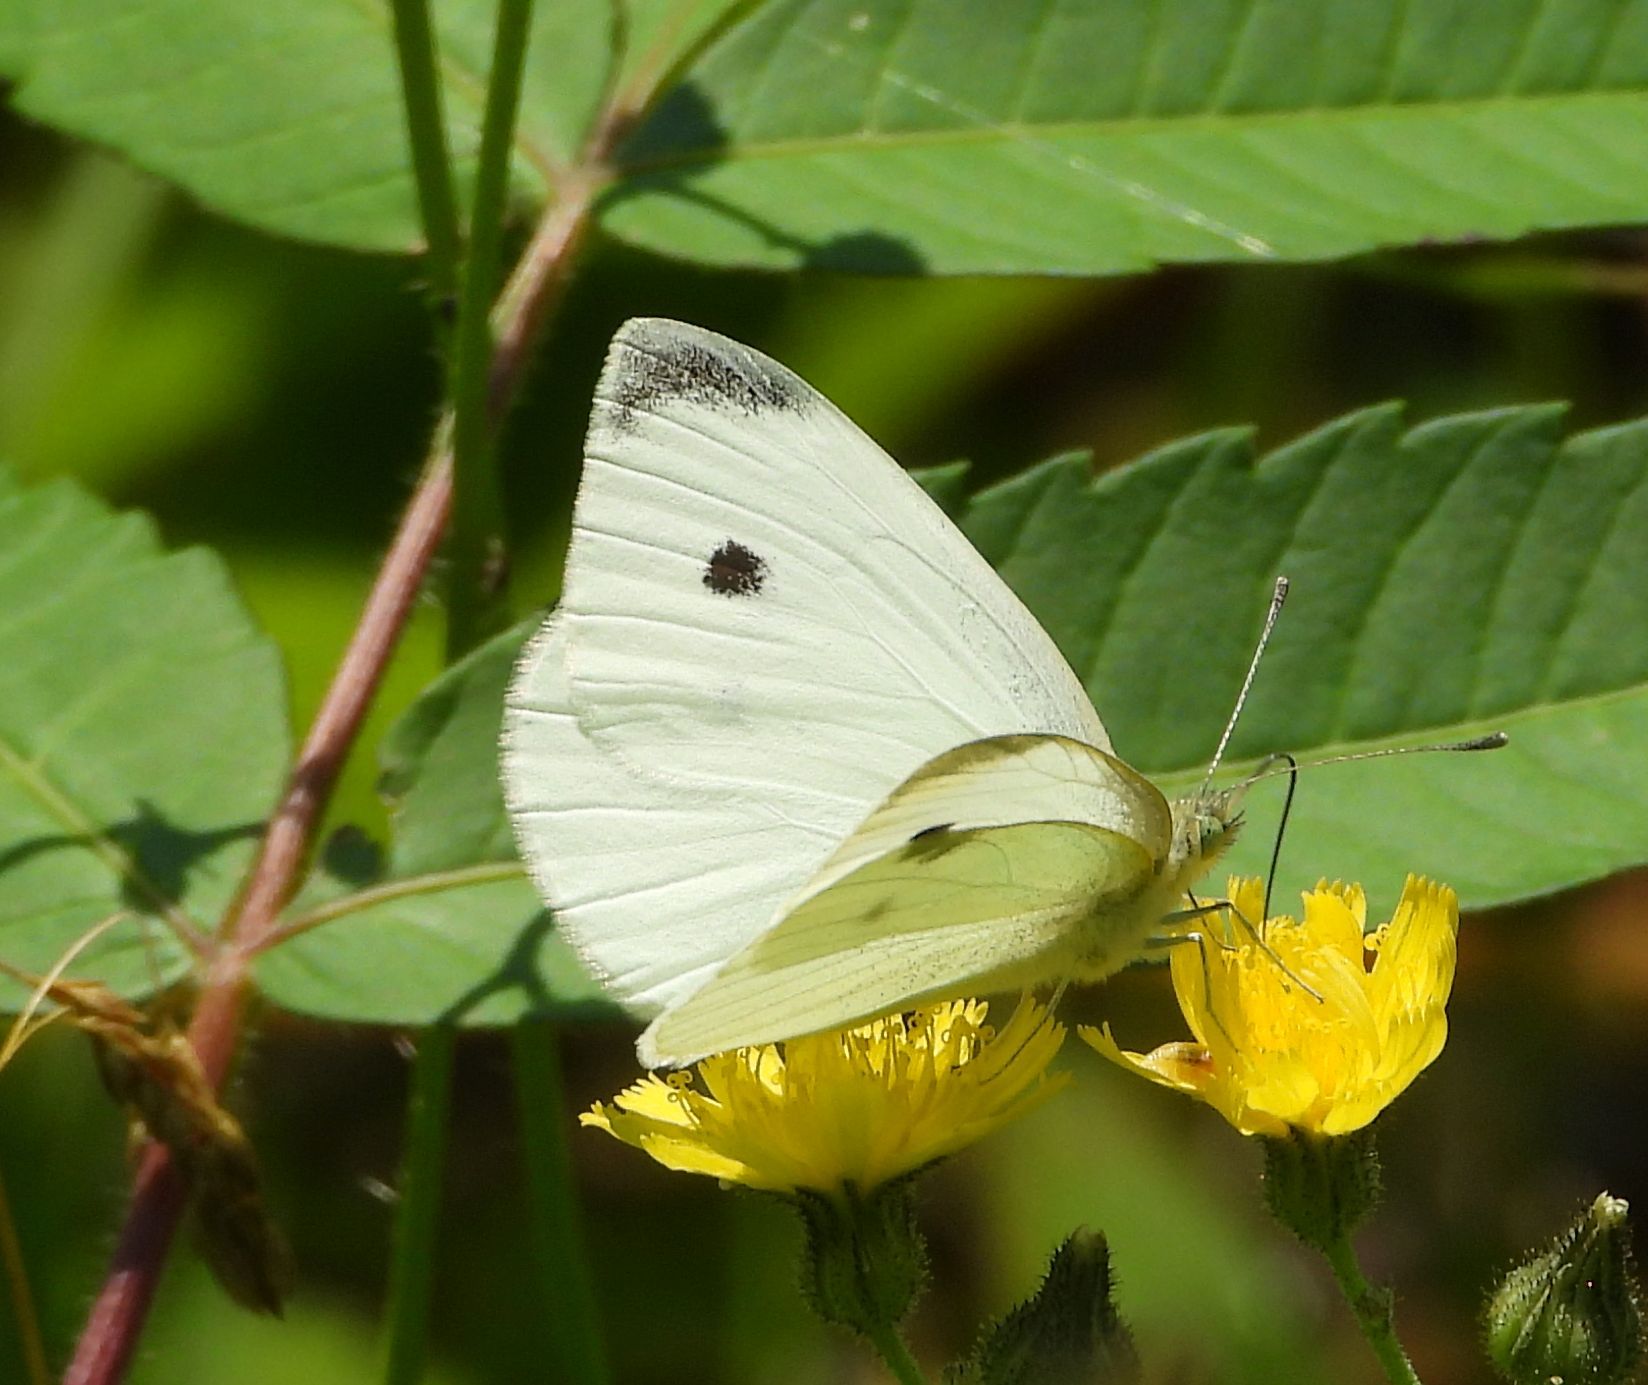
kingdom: Animalia
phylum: Arthropoda
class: Insecta
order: Lepidoptera
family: Pieridae
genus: Pieris
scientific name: Pieris rapae
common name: Small white
